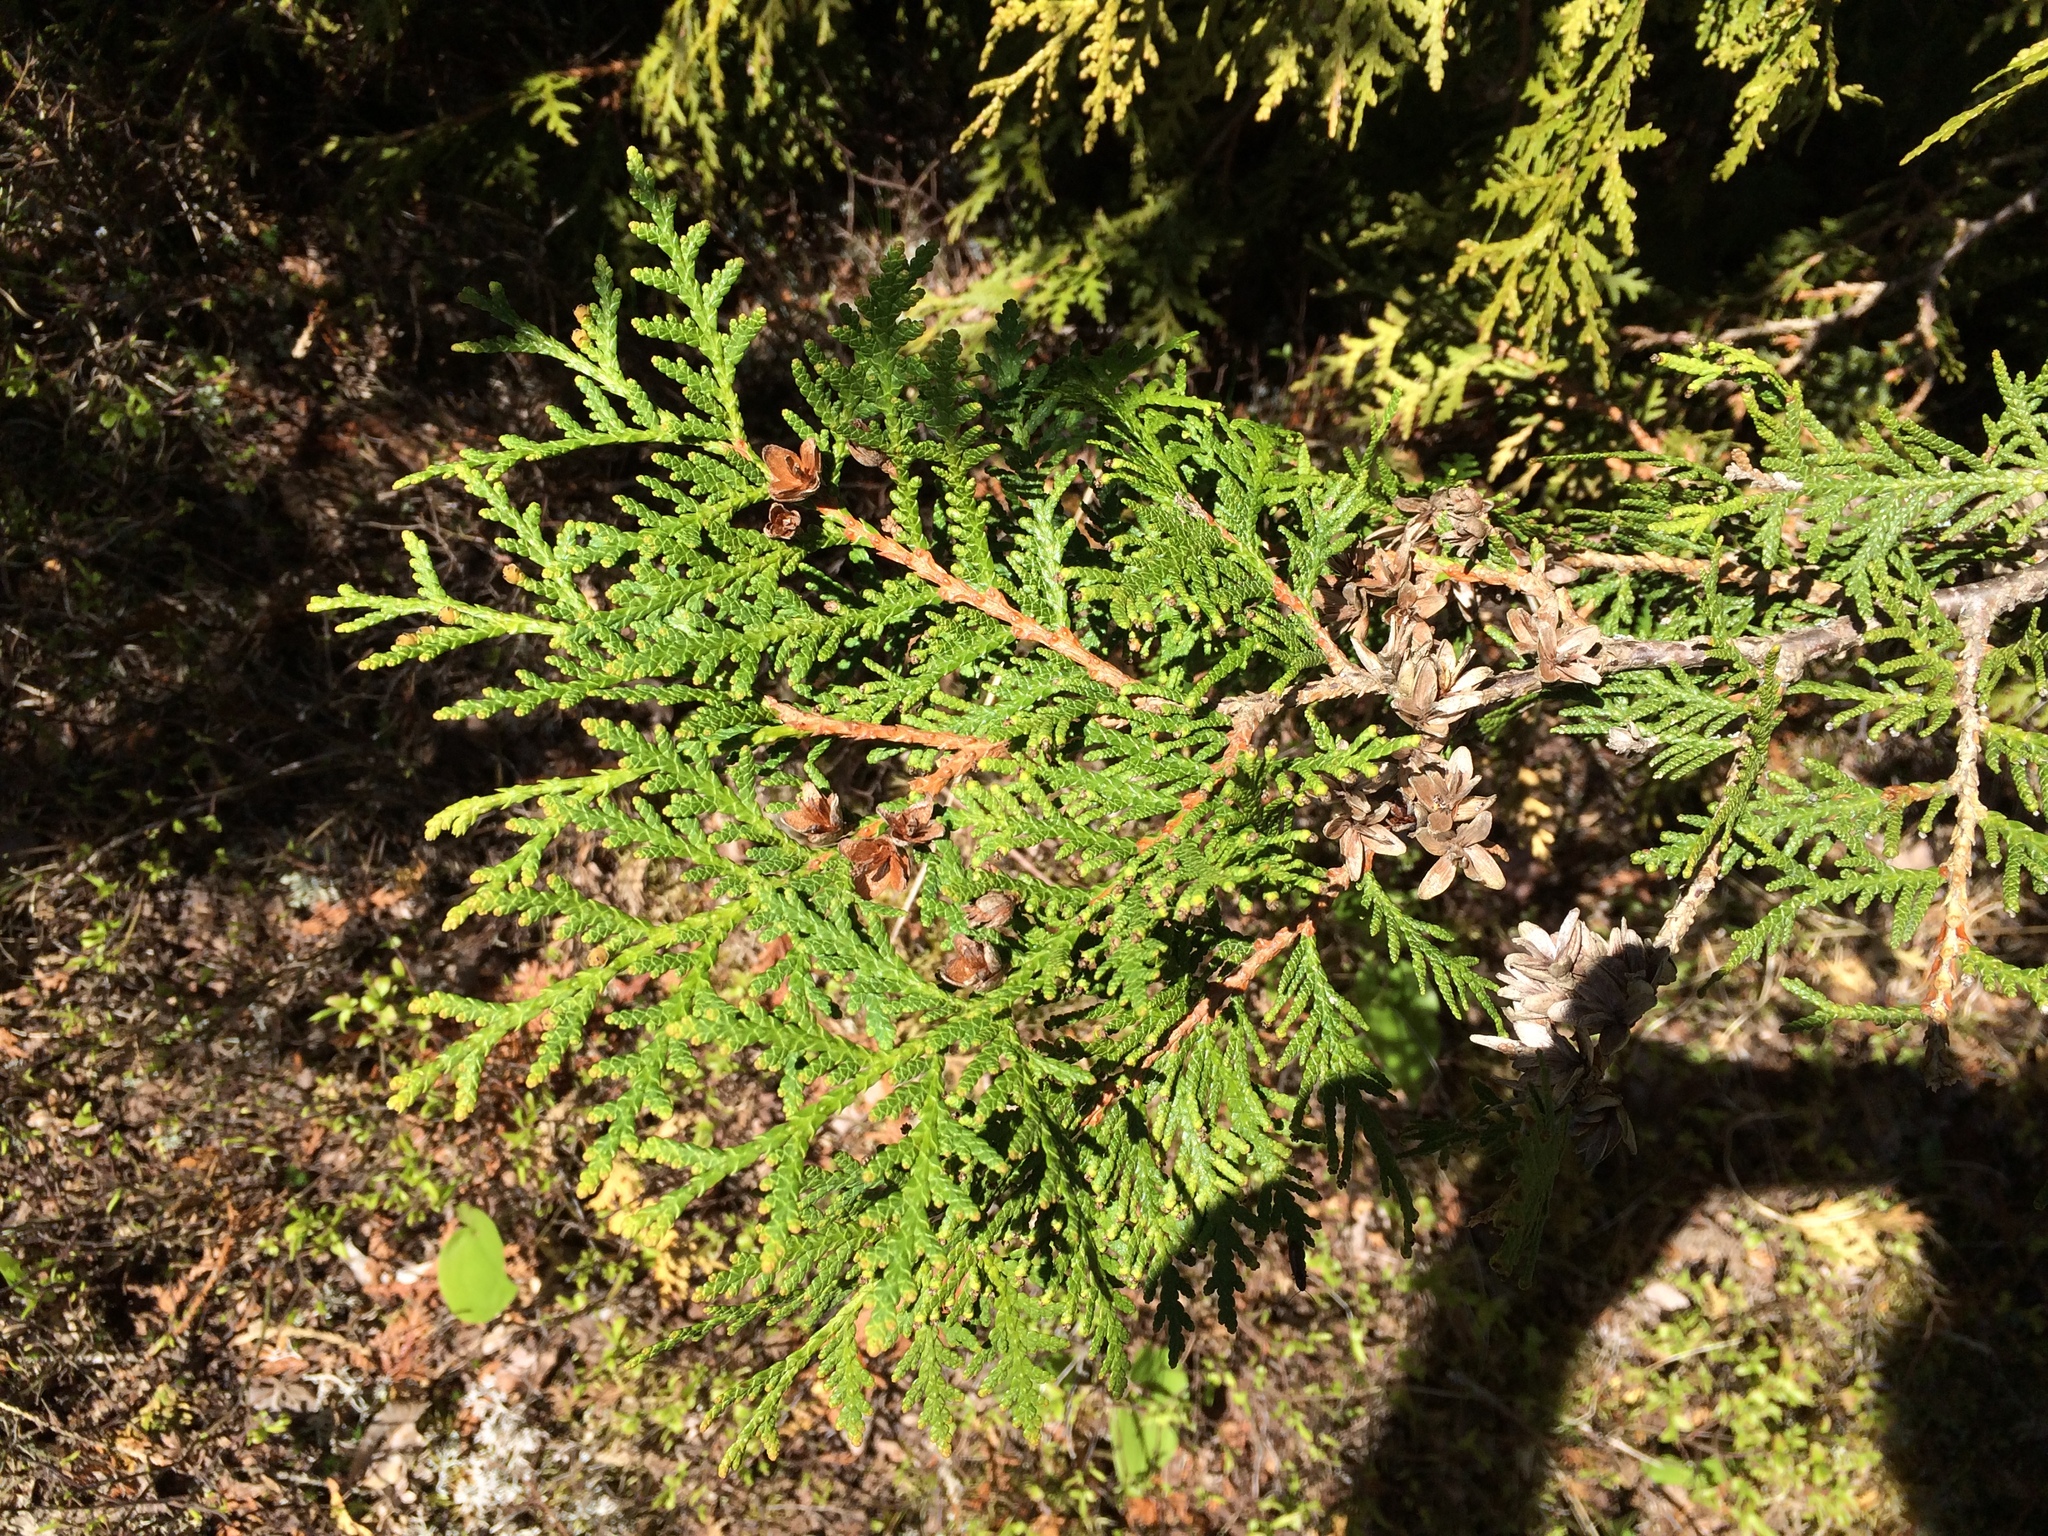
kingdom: Plantae
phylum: Tracheophyta
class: Pinopsida
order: Pinales
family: Cupressaceae
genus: Thuja
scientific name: Thuja occidentalis
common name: Northern white-cedar
